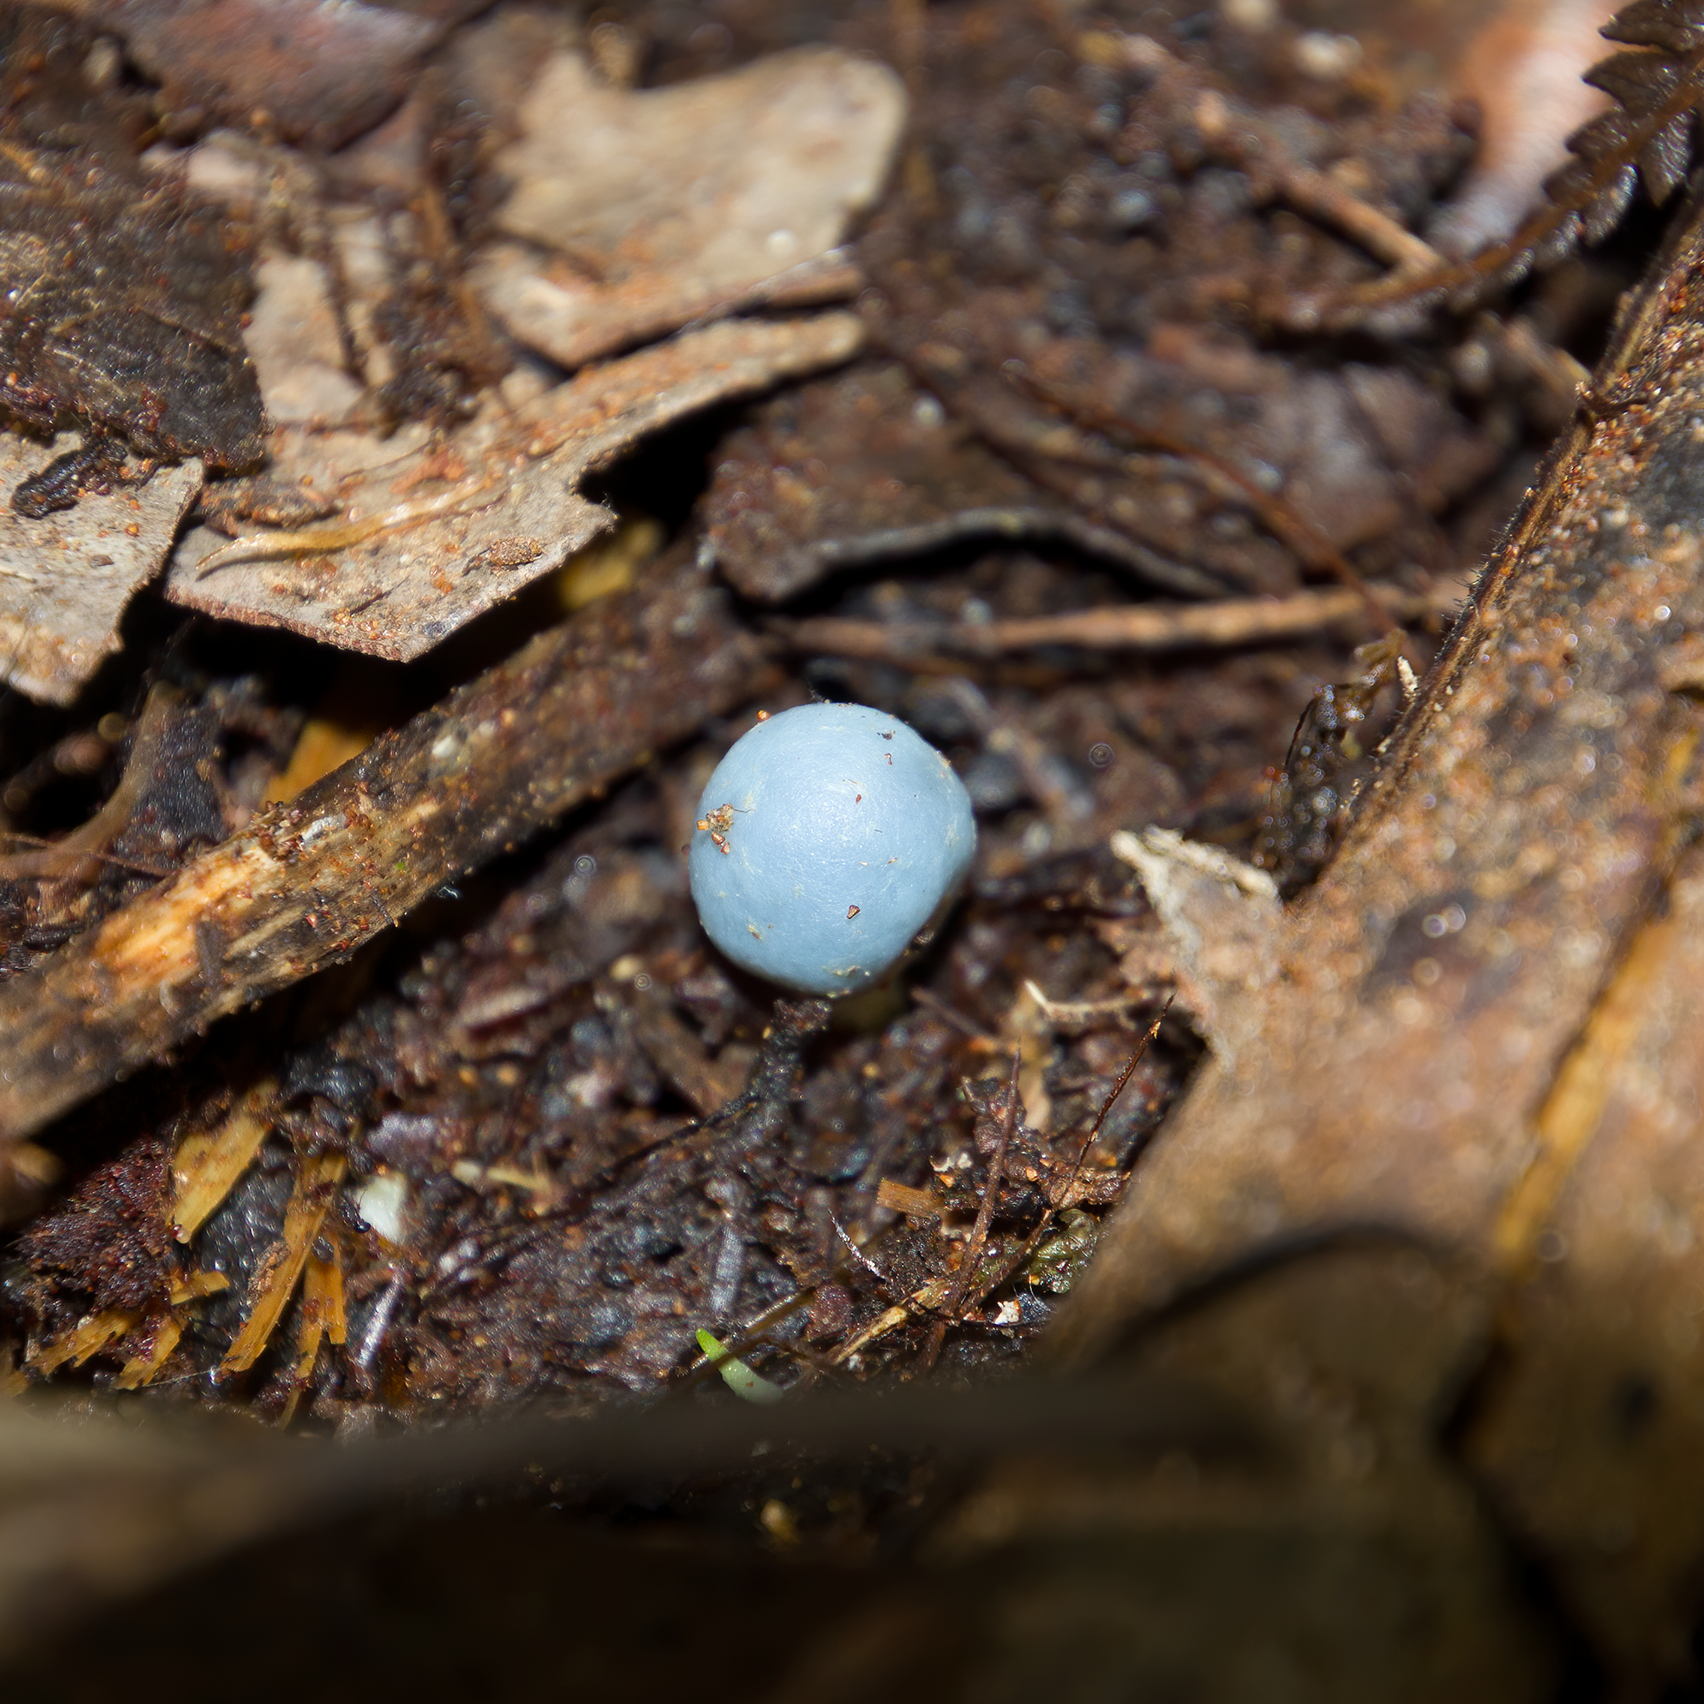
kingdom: Fungi
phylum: Basidiomycota
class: Agaricomycetes
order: Agaricales
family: Agaricaceae
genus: Clavogaster
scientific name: Clavogaster virescens
